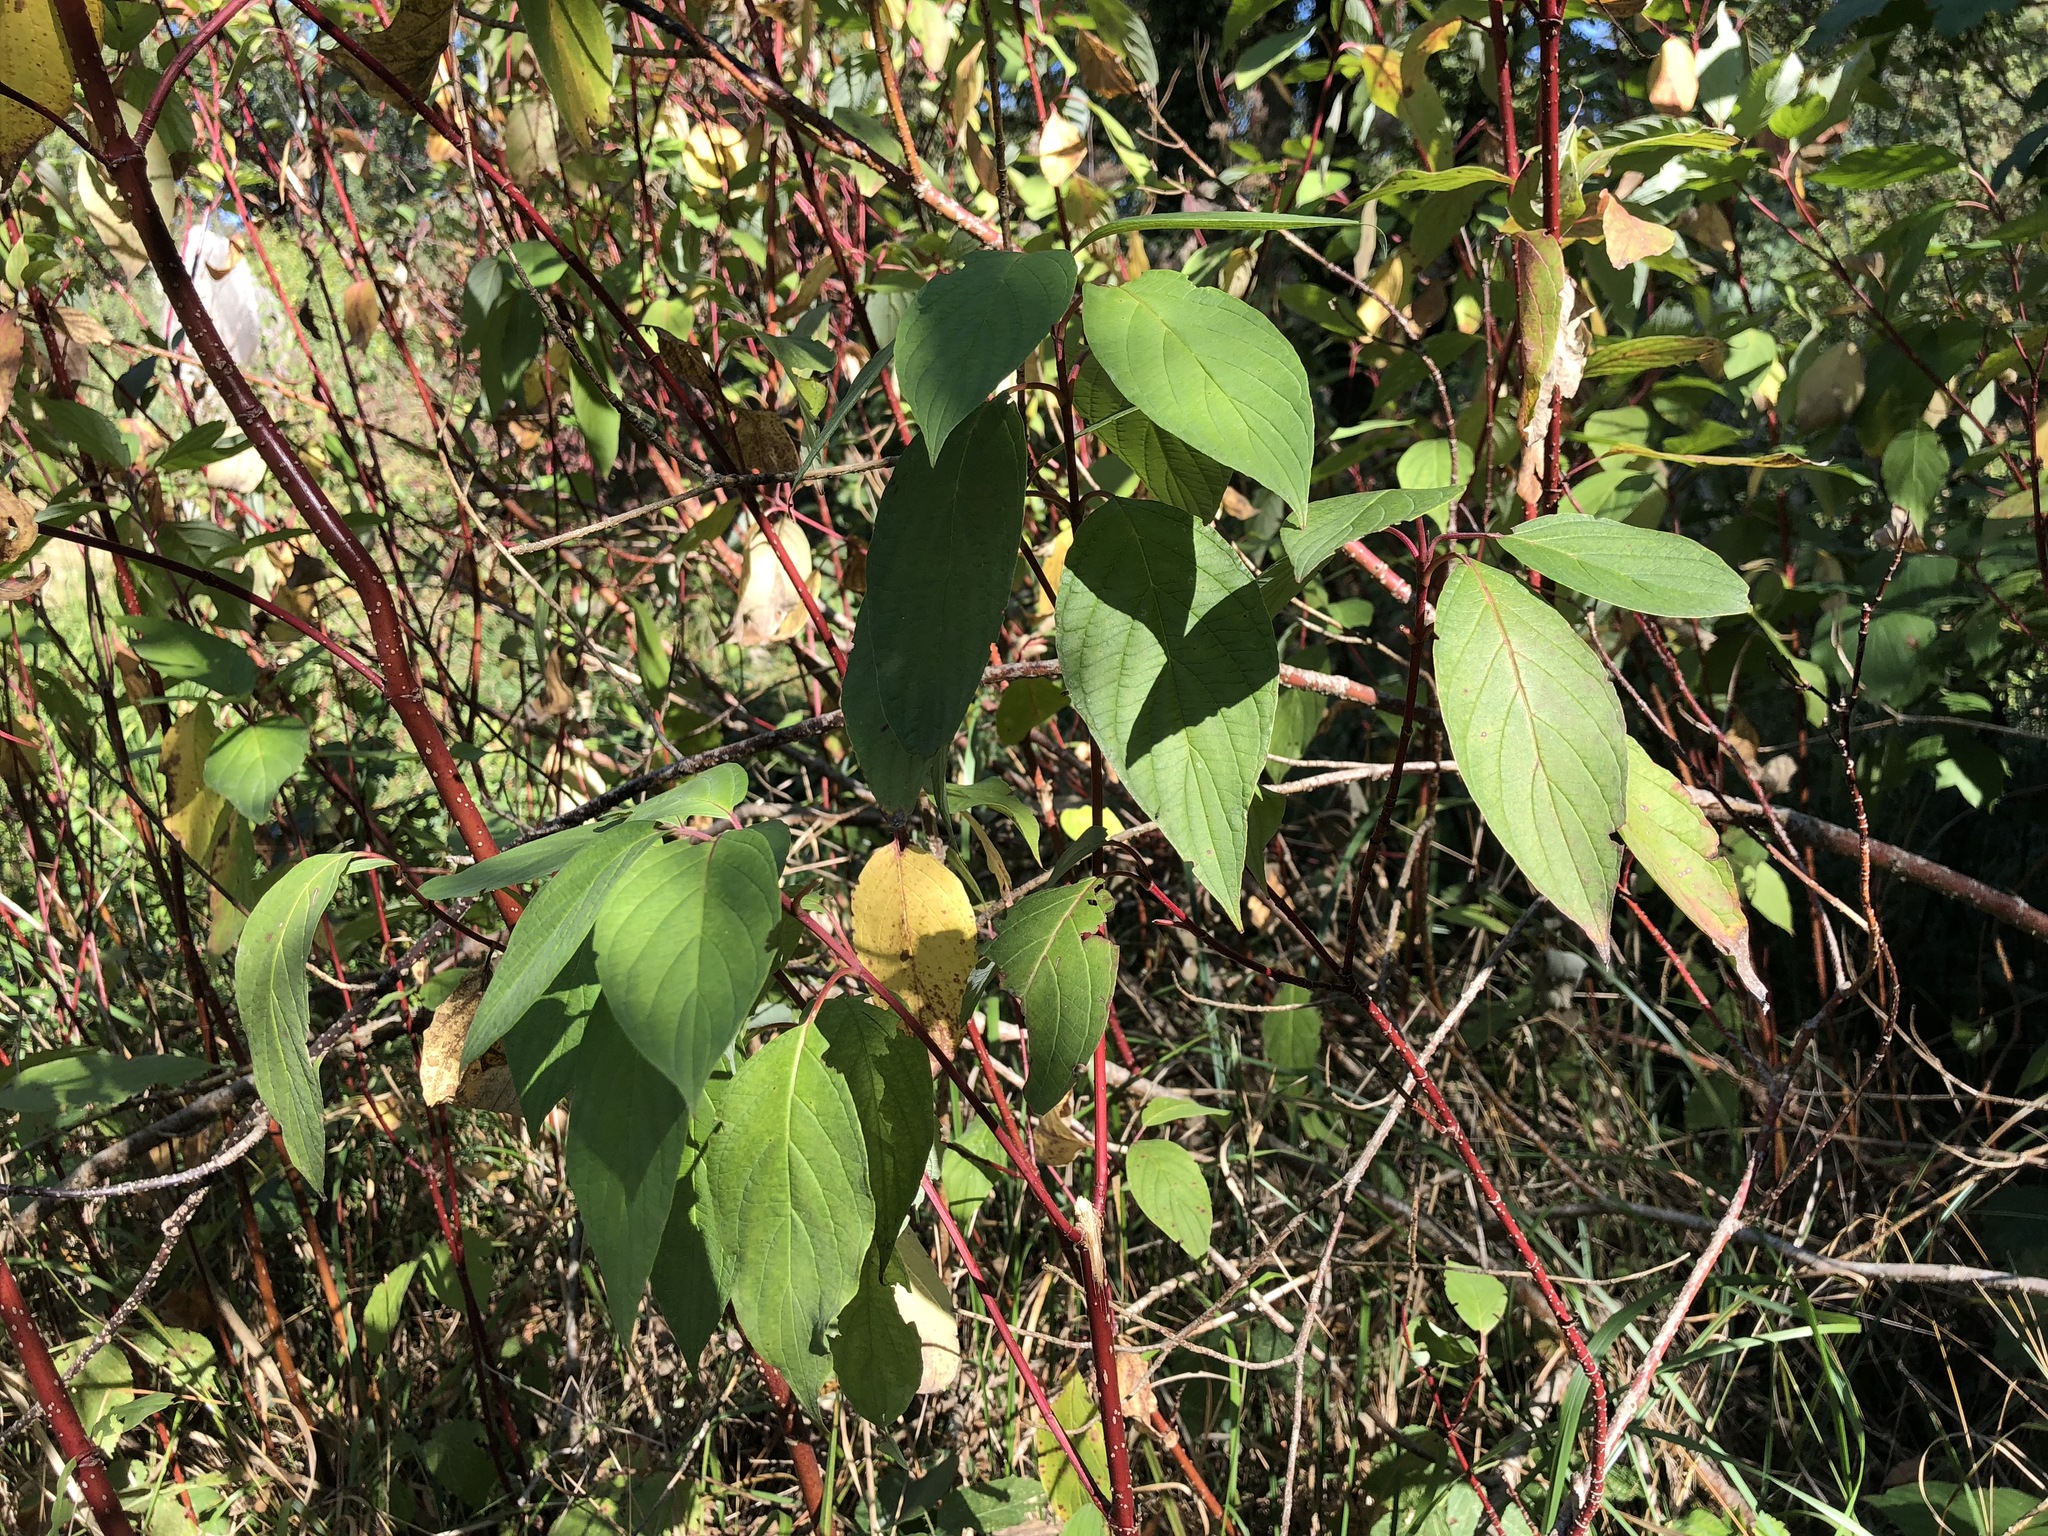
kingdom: Plantae
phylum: Tracheophyta
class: Magnoliopsida
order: Cornales
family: Cornaceae
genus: Cornus
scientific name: Cornus sericea
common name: Red-osier dogwood
